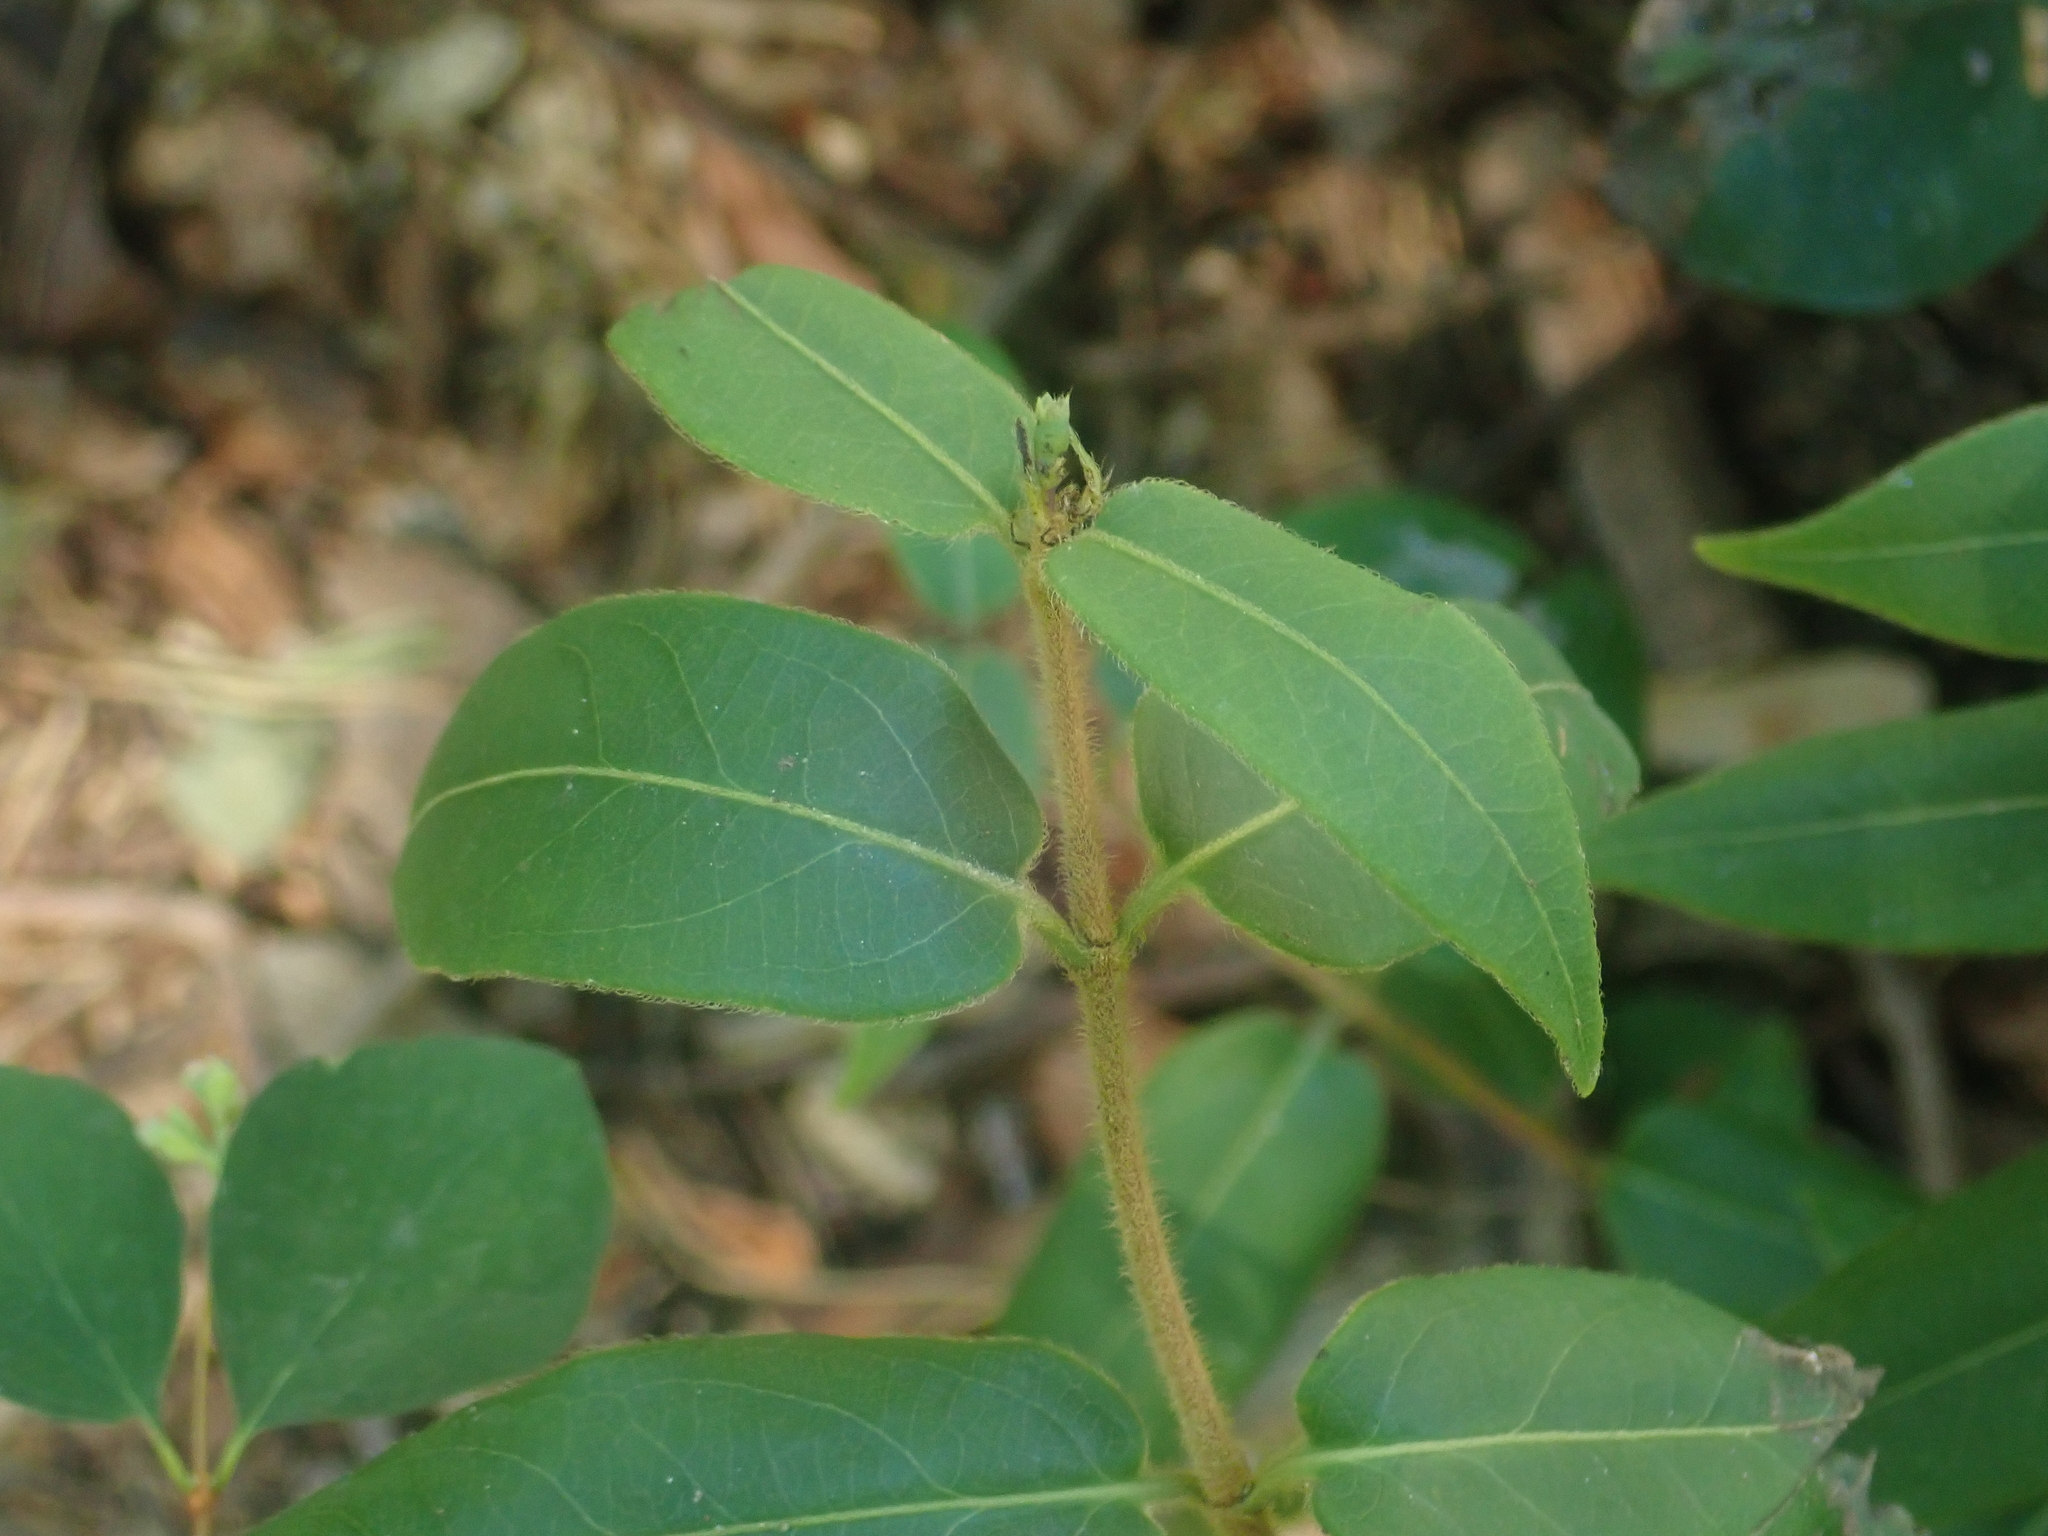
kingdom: Plantae
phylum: Tracheophyta
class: Magnoliopsida
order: Dipsacales
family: Caprifoliaceae
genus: Lonicera
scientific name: Lonicera acuminata
